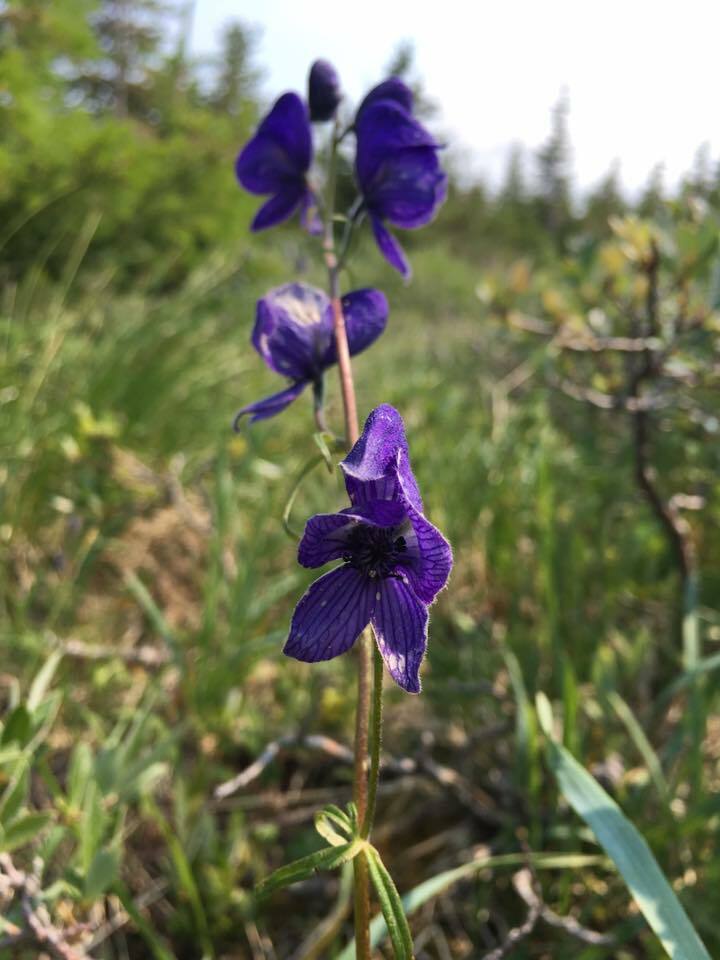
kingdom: Plantae
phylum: Tracheophyta
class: Magnoliopsida
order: Ranunculales
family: Ranunculaceae
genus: Aconitum
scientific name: Aconitum delphiniifolium
